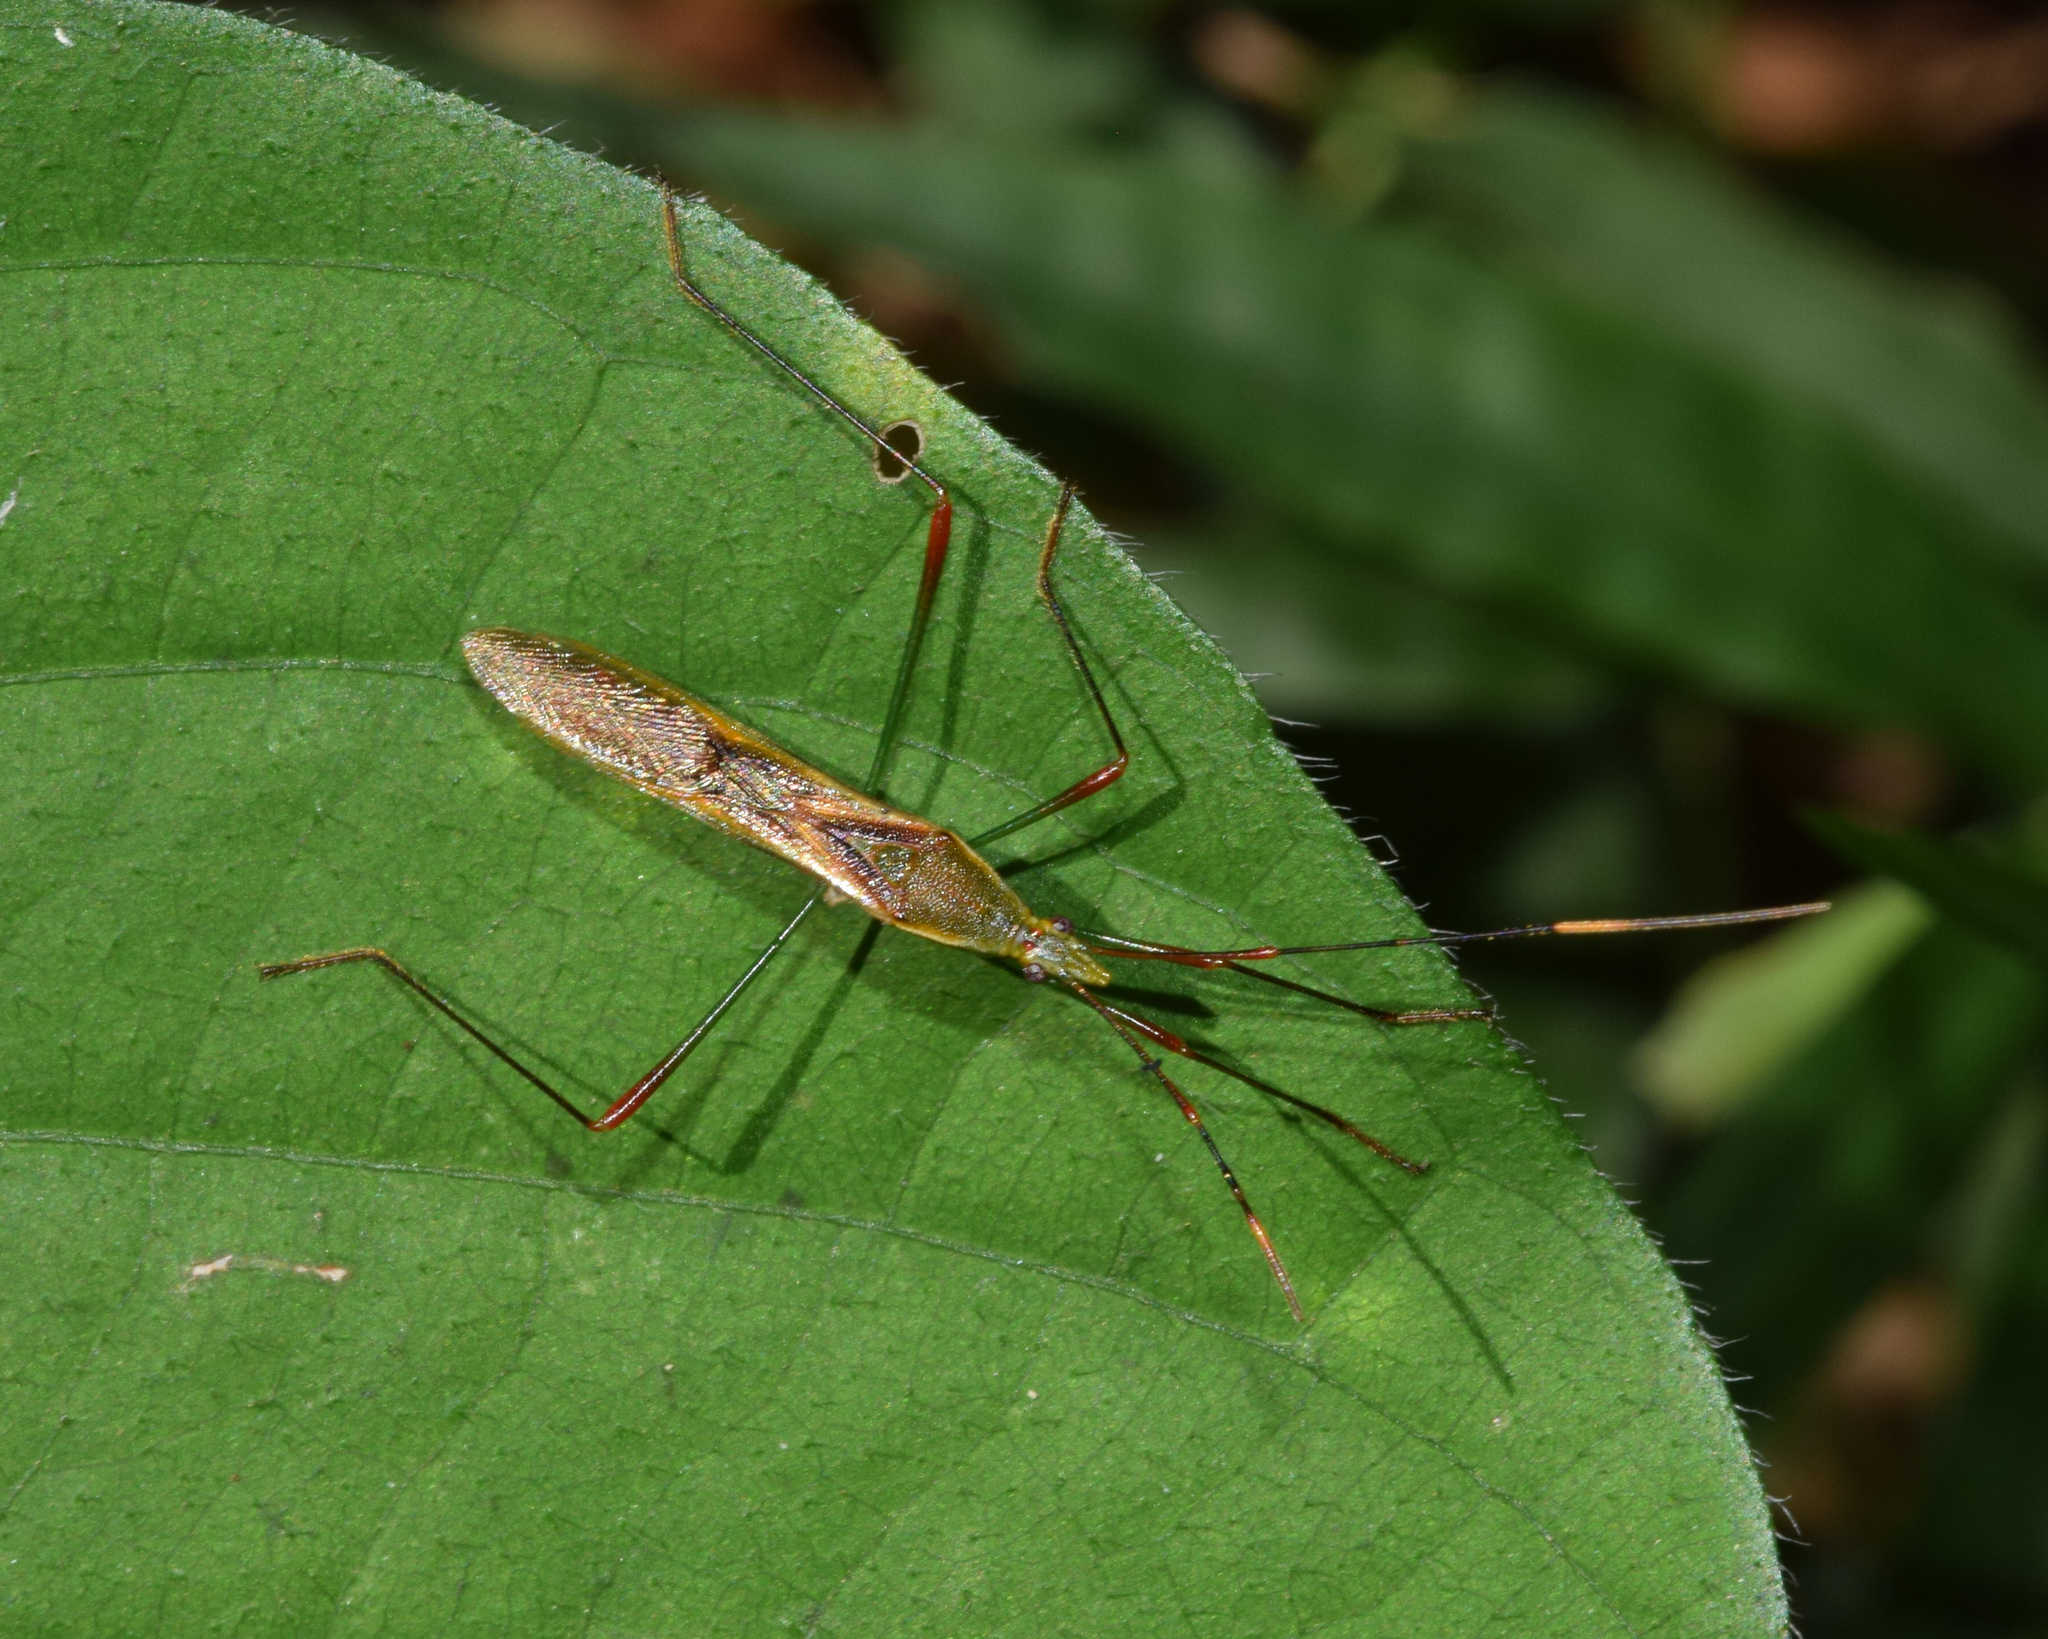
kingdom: Animalia
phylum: Arthropoda
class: Insecta
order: Hemiptera
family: Alydidae
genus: Stenocoris
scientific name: Stenocoris apicalis
